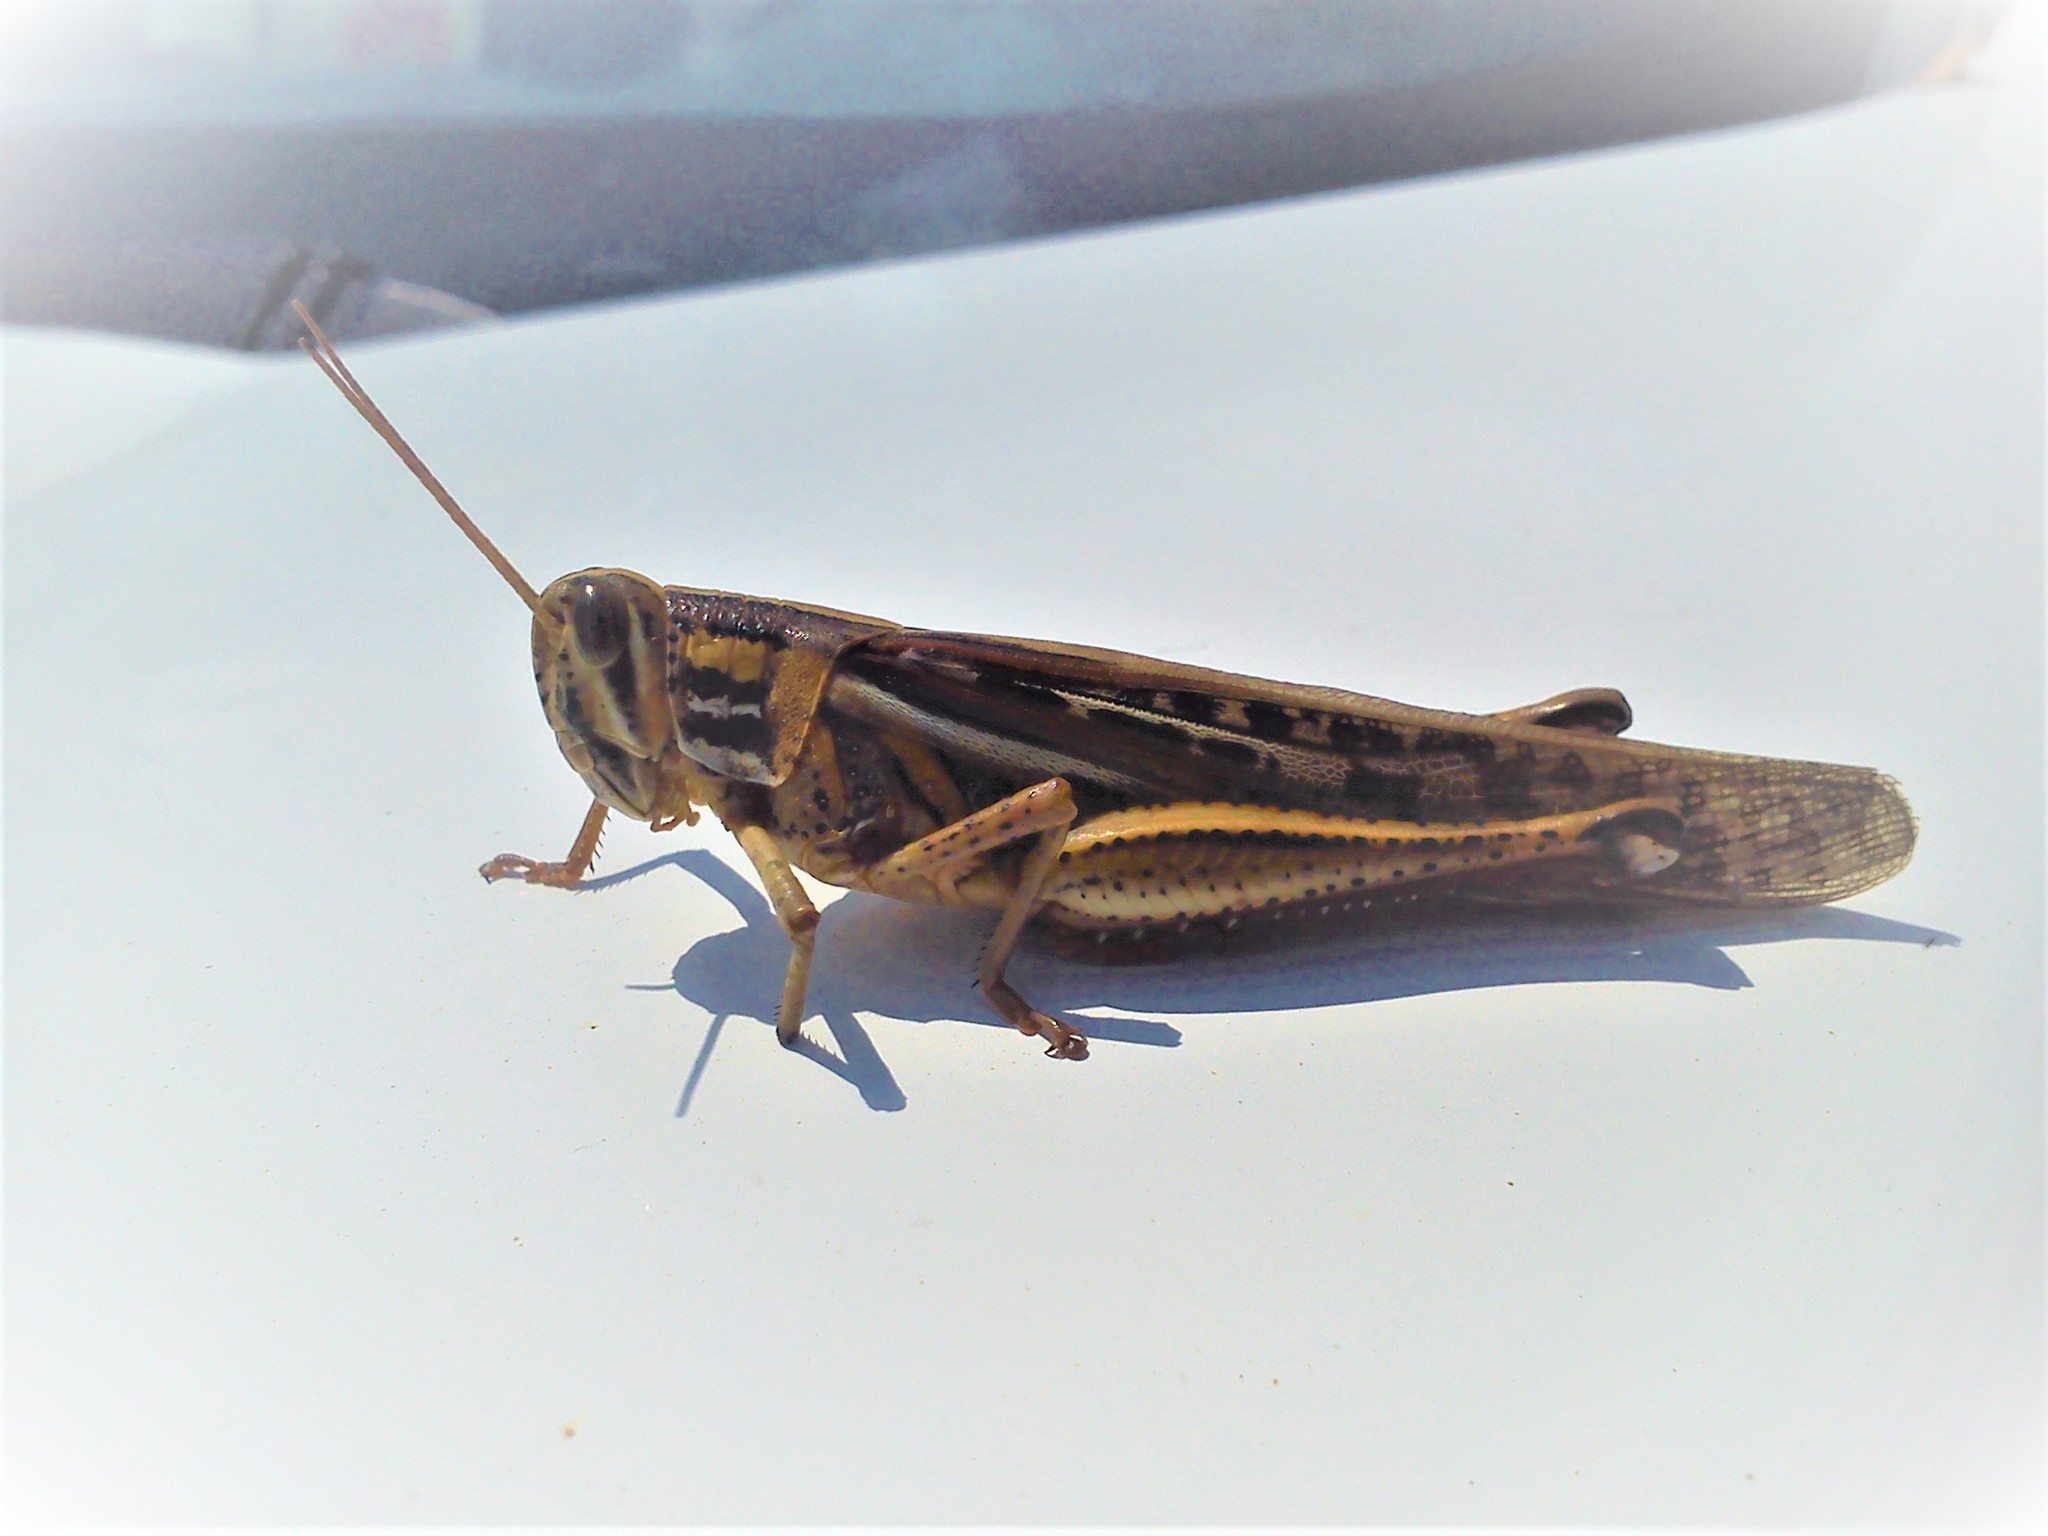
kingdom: Animalia
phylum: Arthropoda
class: Insecta
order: Orthoptera
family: Acrididae
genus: Schistocerca
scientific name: Schistocerca piceifrons
